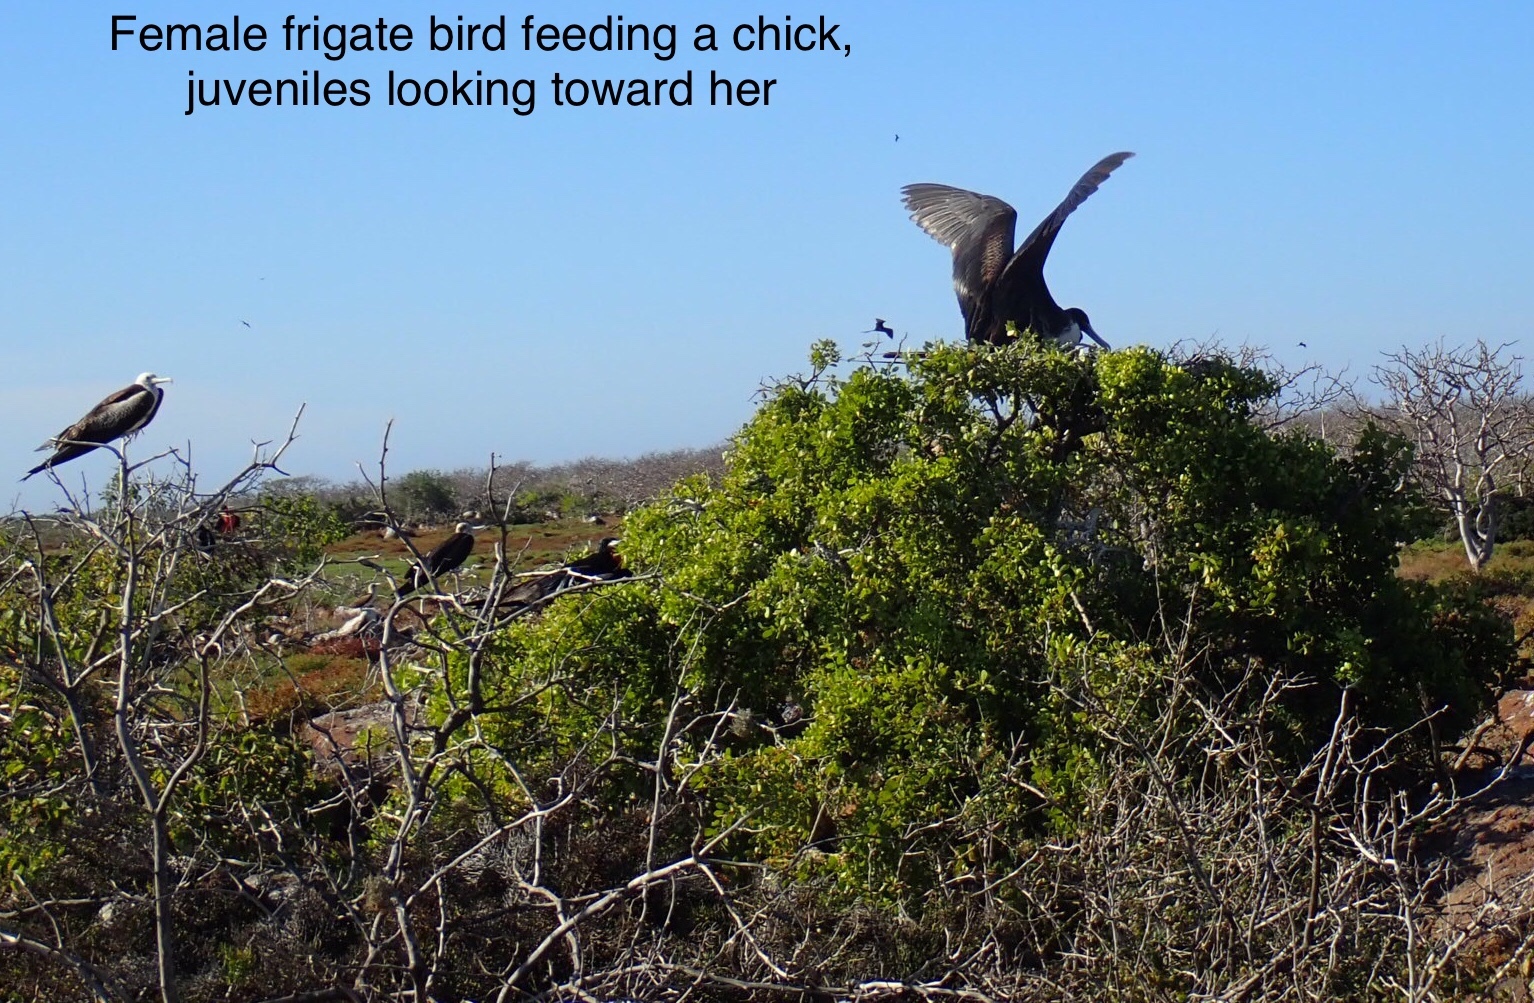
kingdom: Animalia
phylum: Chordata
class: Aves
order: Suliformes
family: Fregatidae
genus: Fregata
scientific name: Fregata magnificens
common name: Magnificent frigatebird
